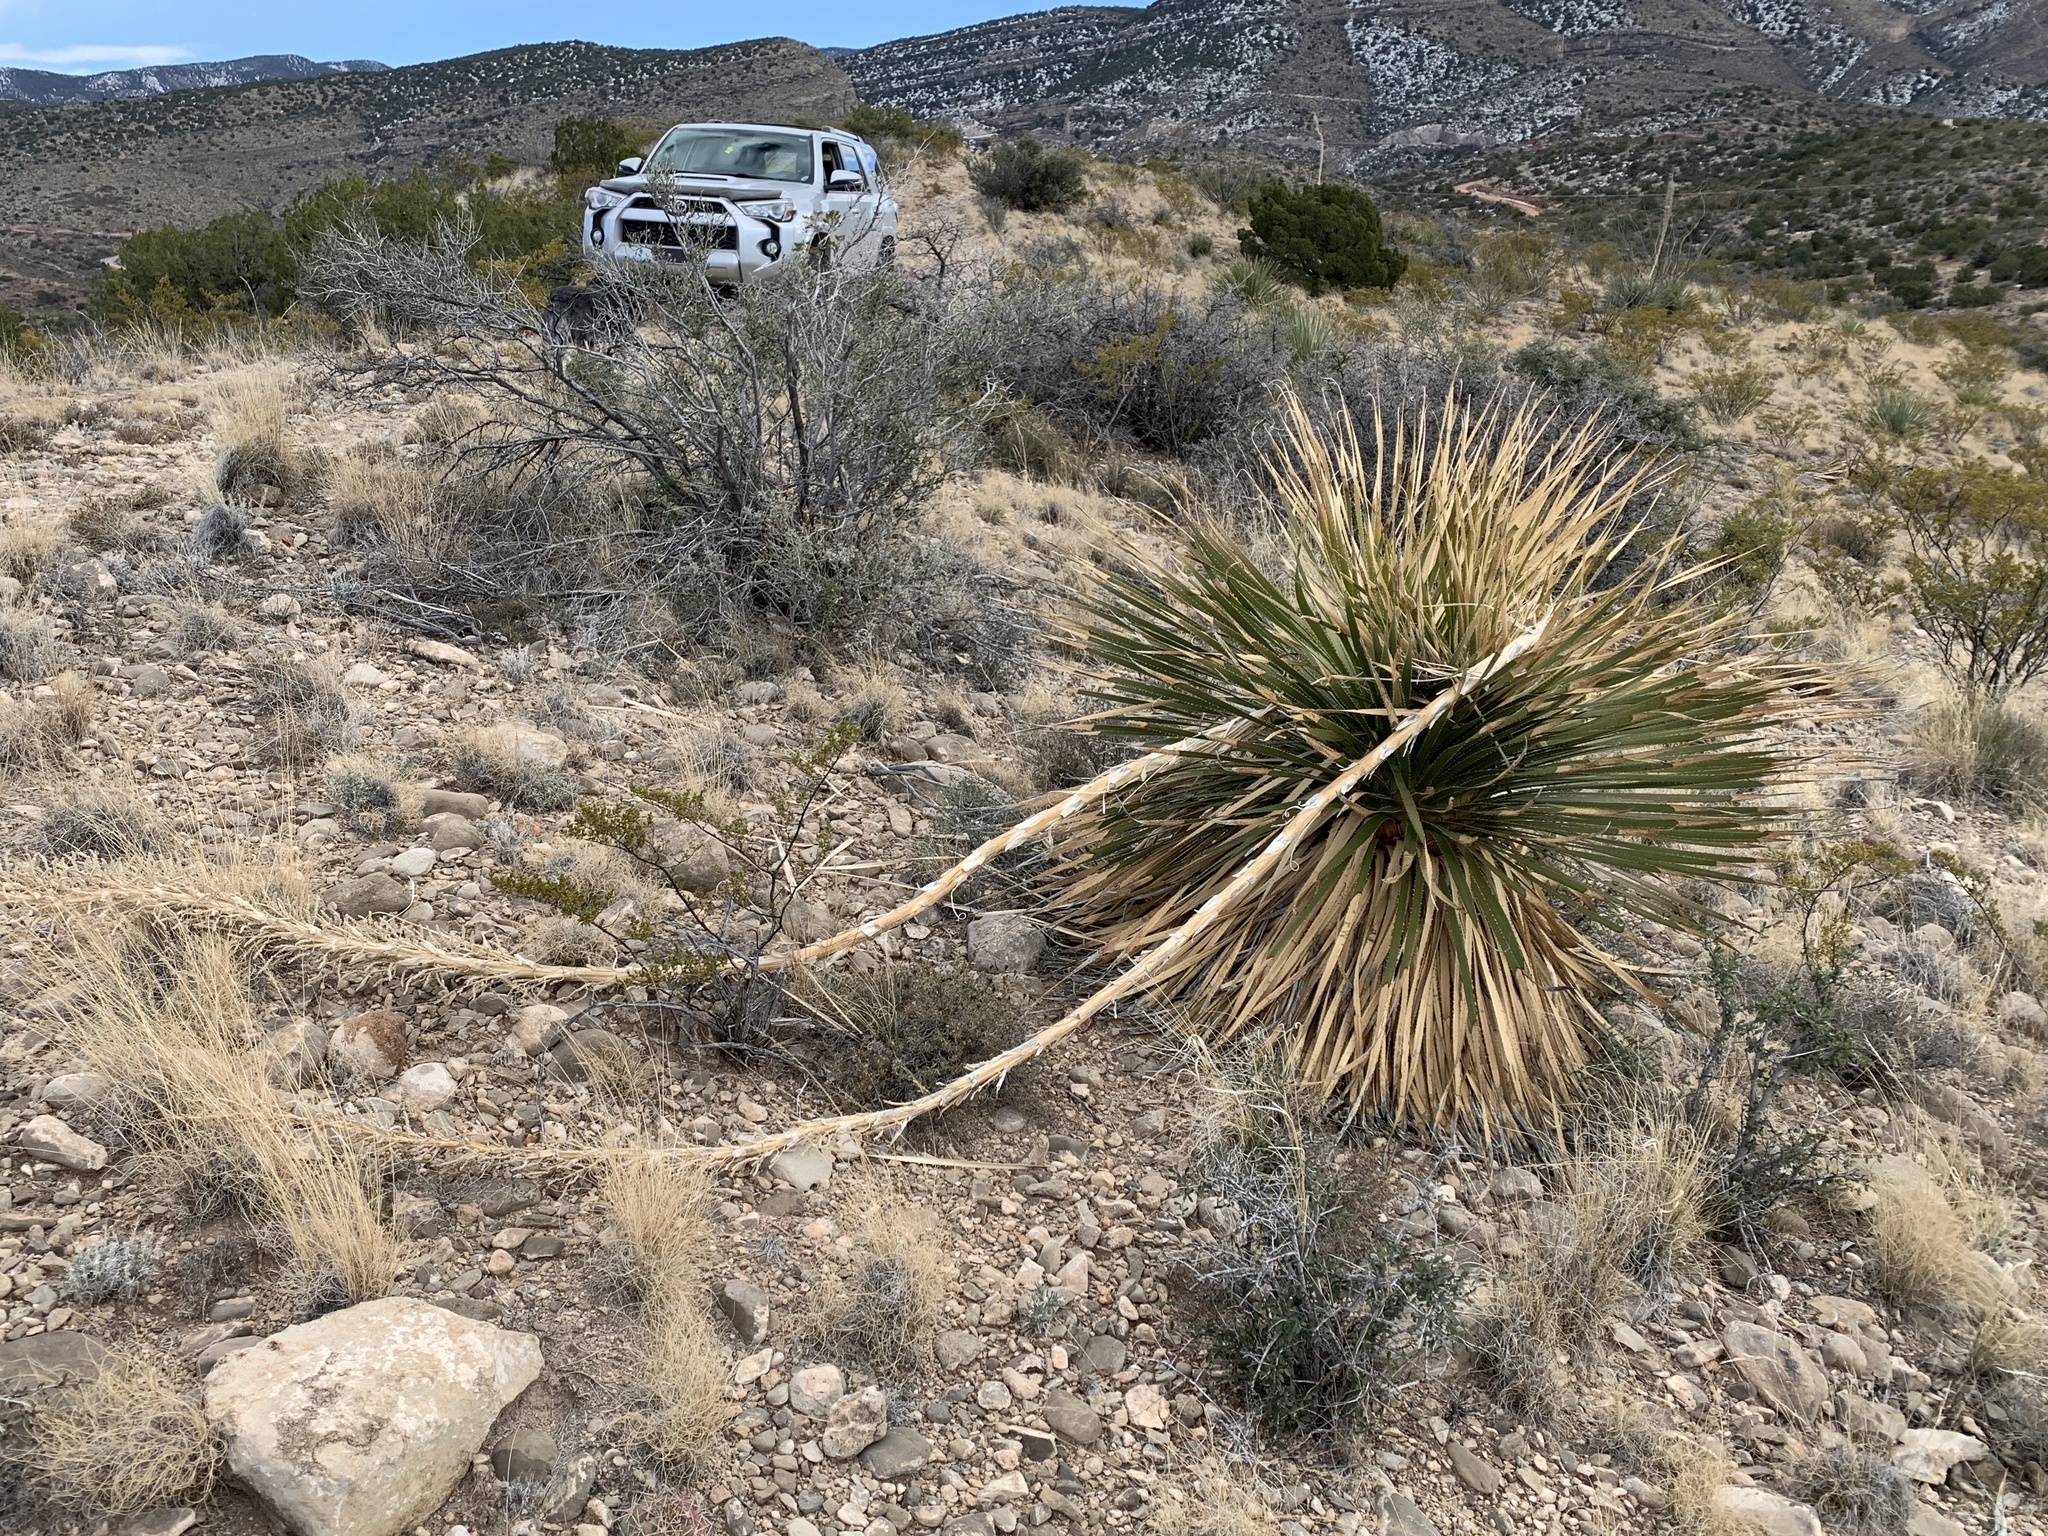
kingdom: Plantae
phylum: Tracheophyta
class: Liliopsida
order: Asparagales
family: Asparagaceae
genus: Dasylirion
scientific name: Dasylirion wheeleri
